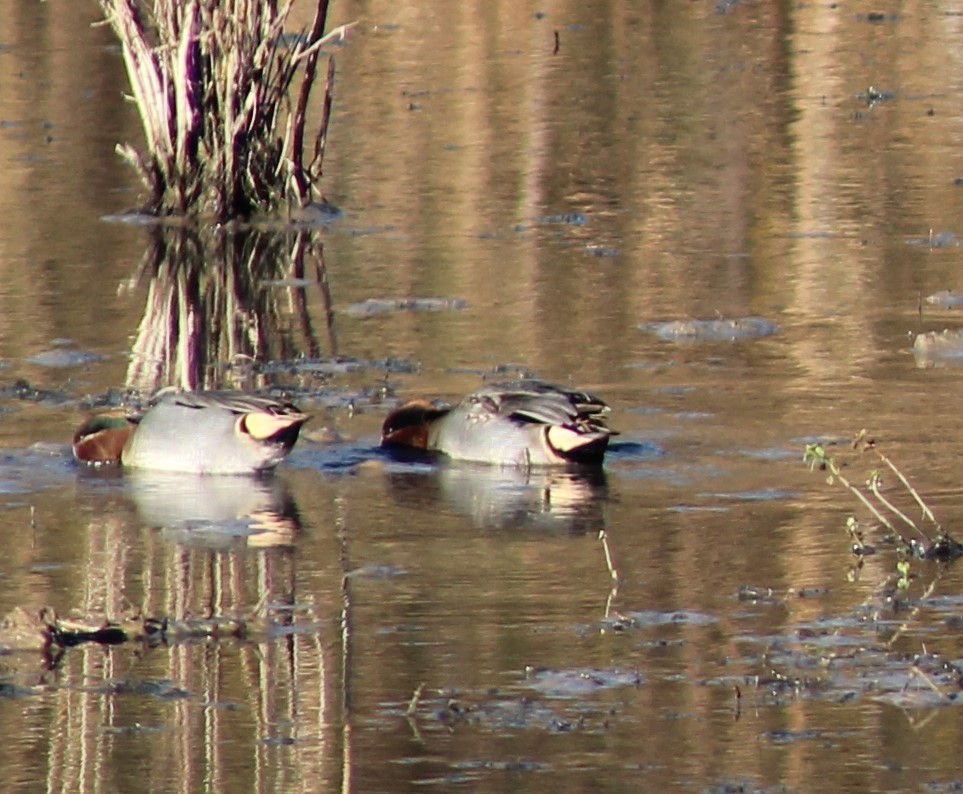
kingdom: Animalia
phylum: Chordata
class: Aves
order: Anseriformes
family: Anatidae
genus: Anas
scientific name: Anas crecca
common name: Eurasian teal
